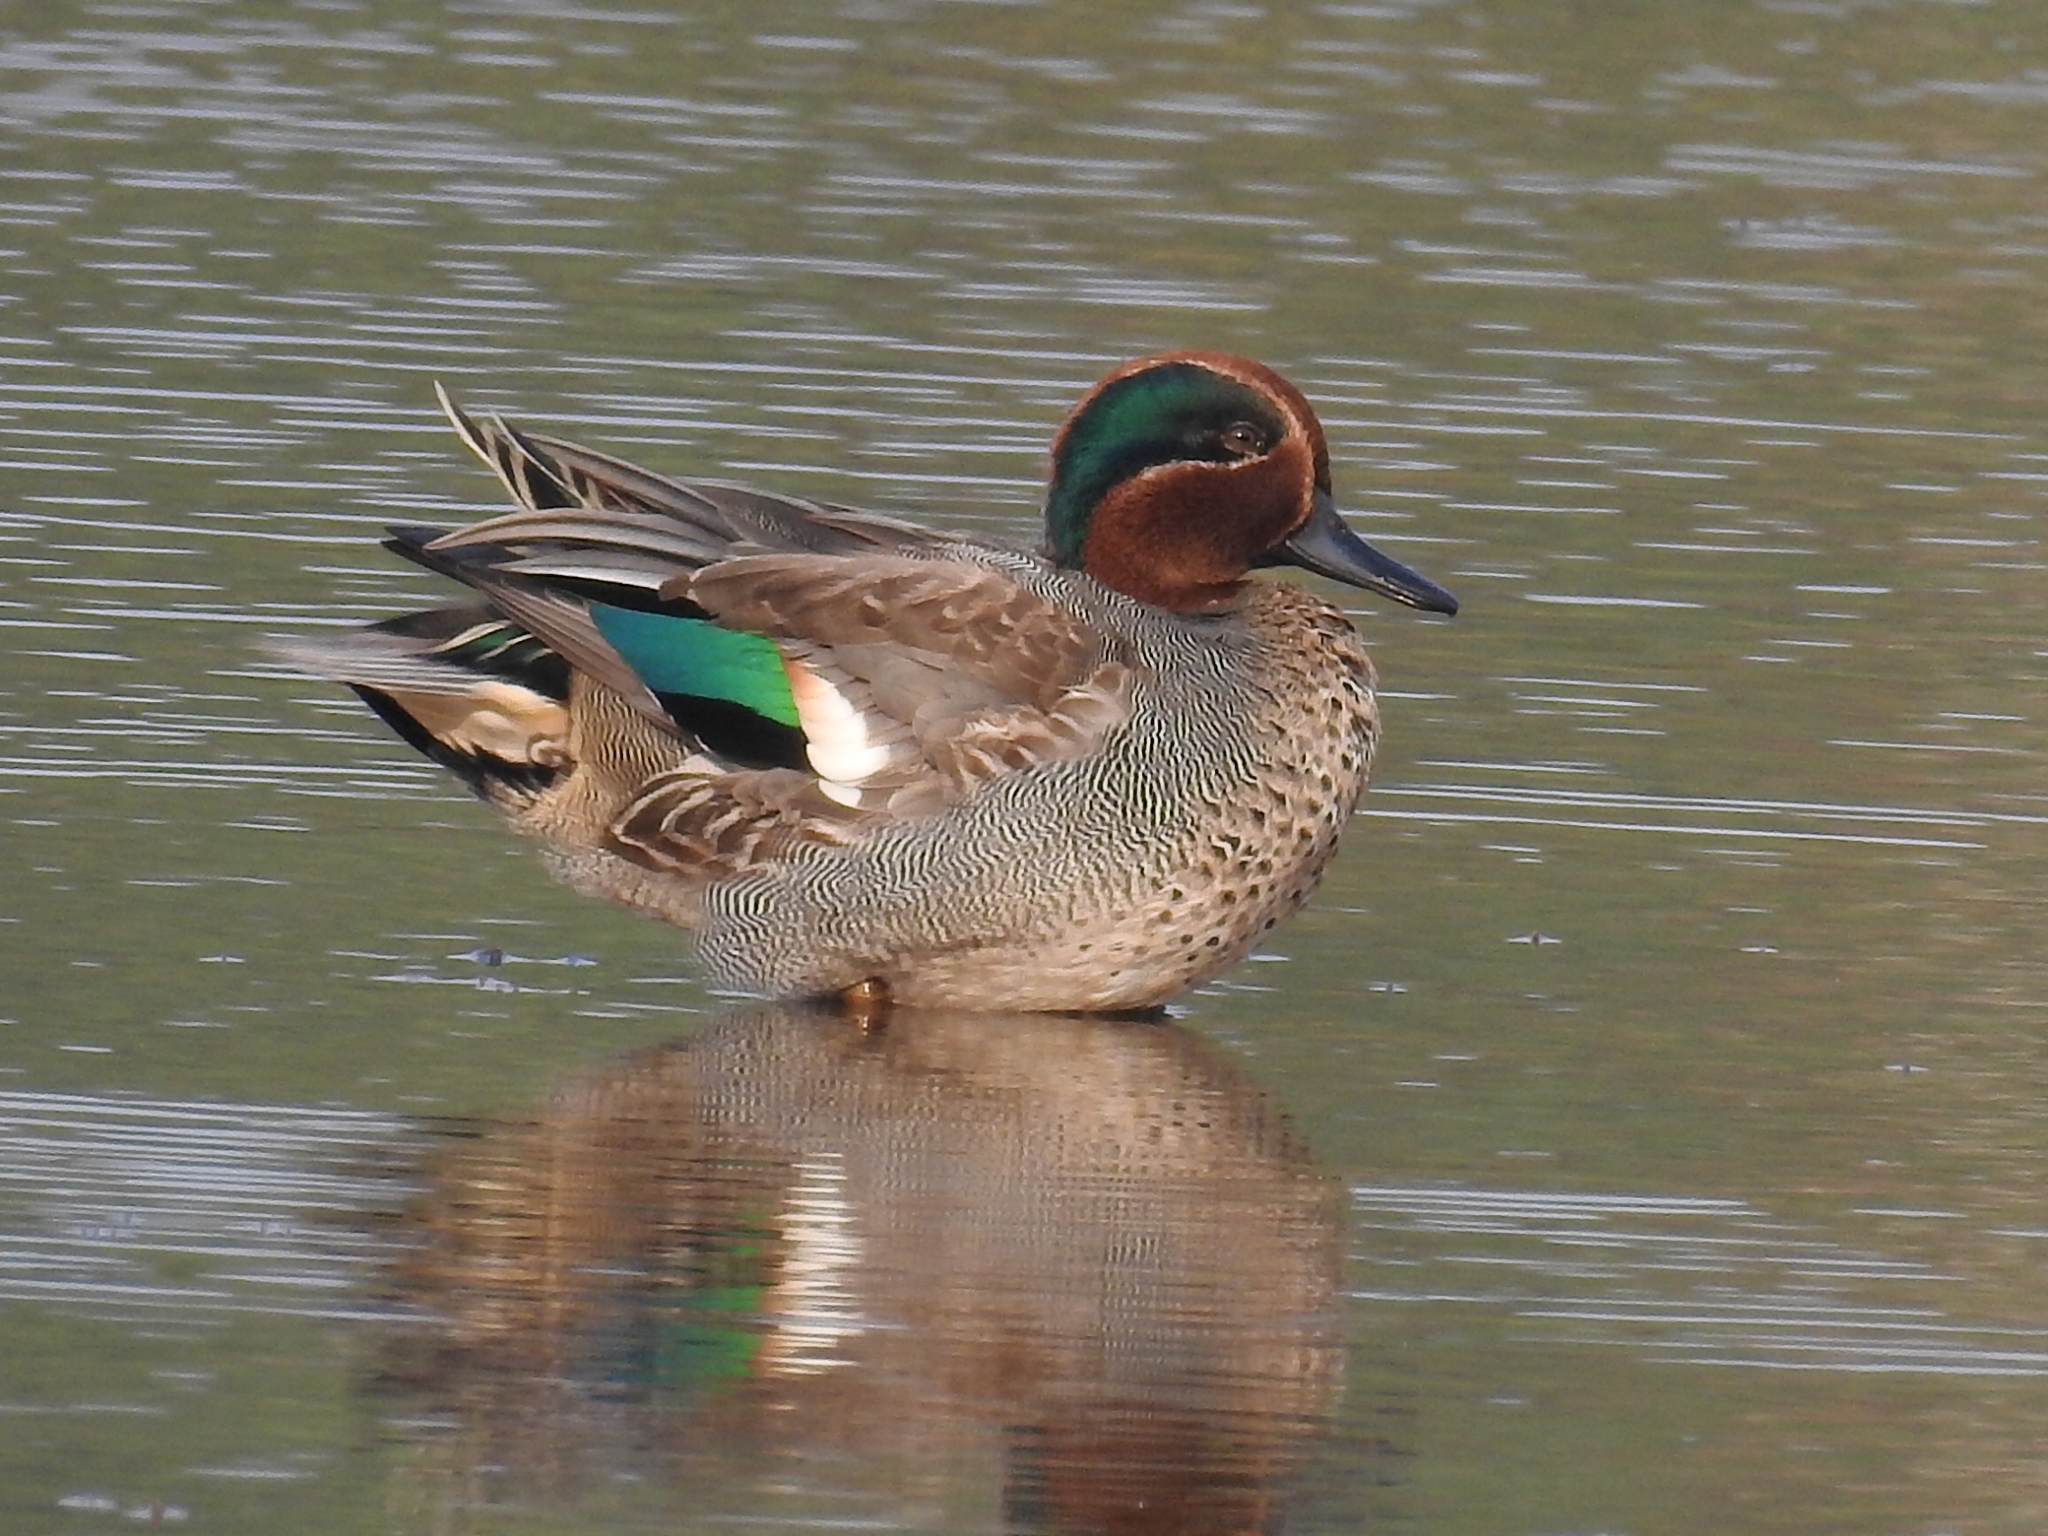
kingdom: Animalia
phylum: Chordata
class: Aves
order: Anseriformes
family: Anatidae
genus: Anas
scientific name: Anas crecca
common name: Eurasian teal
